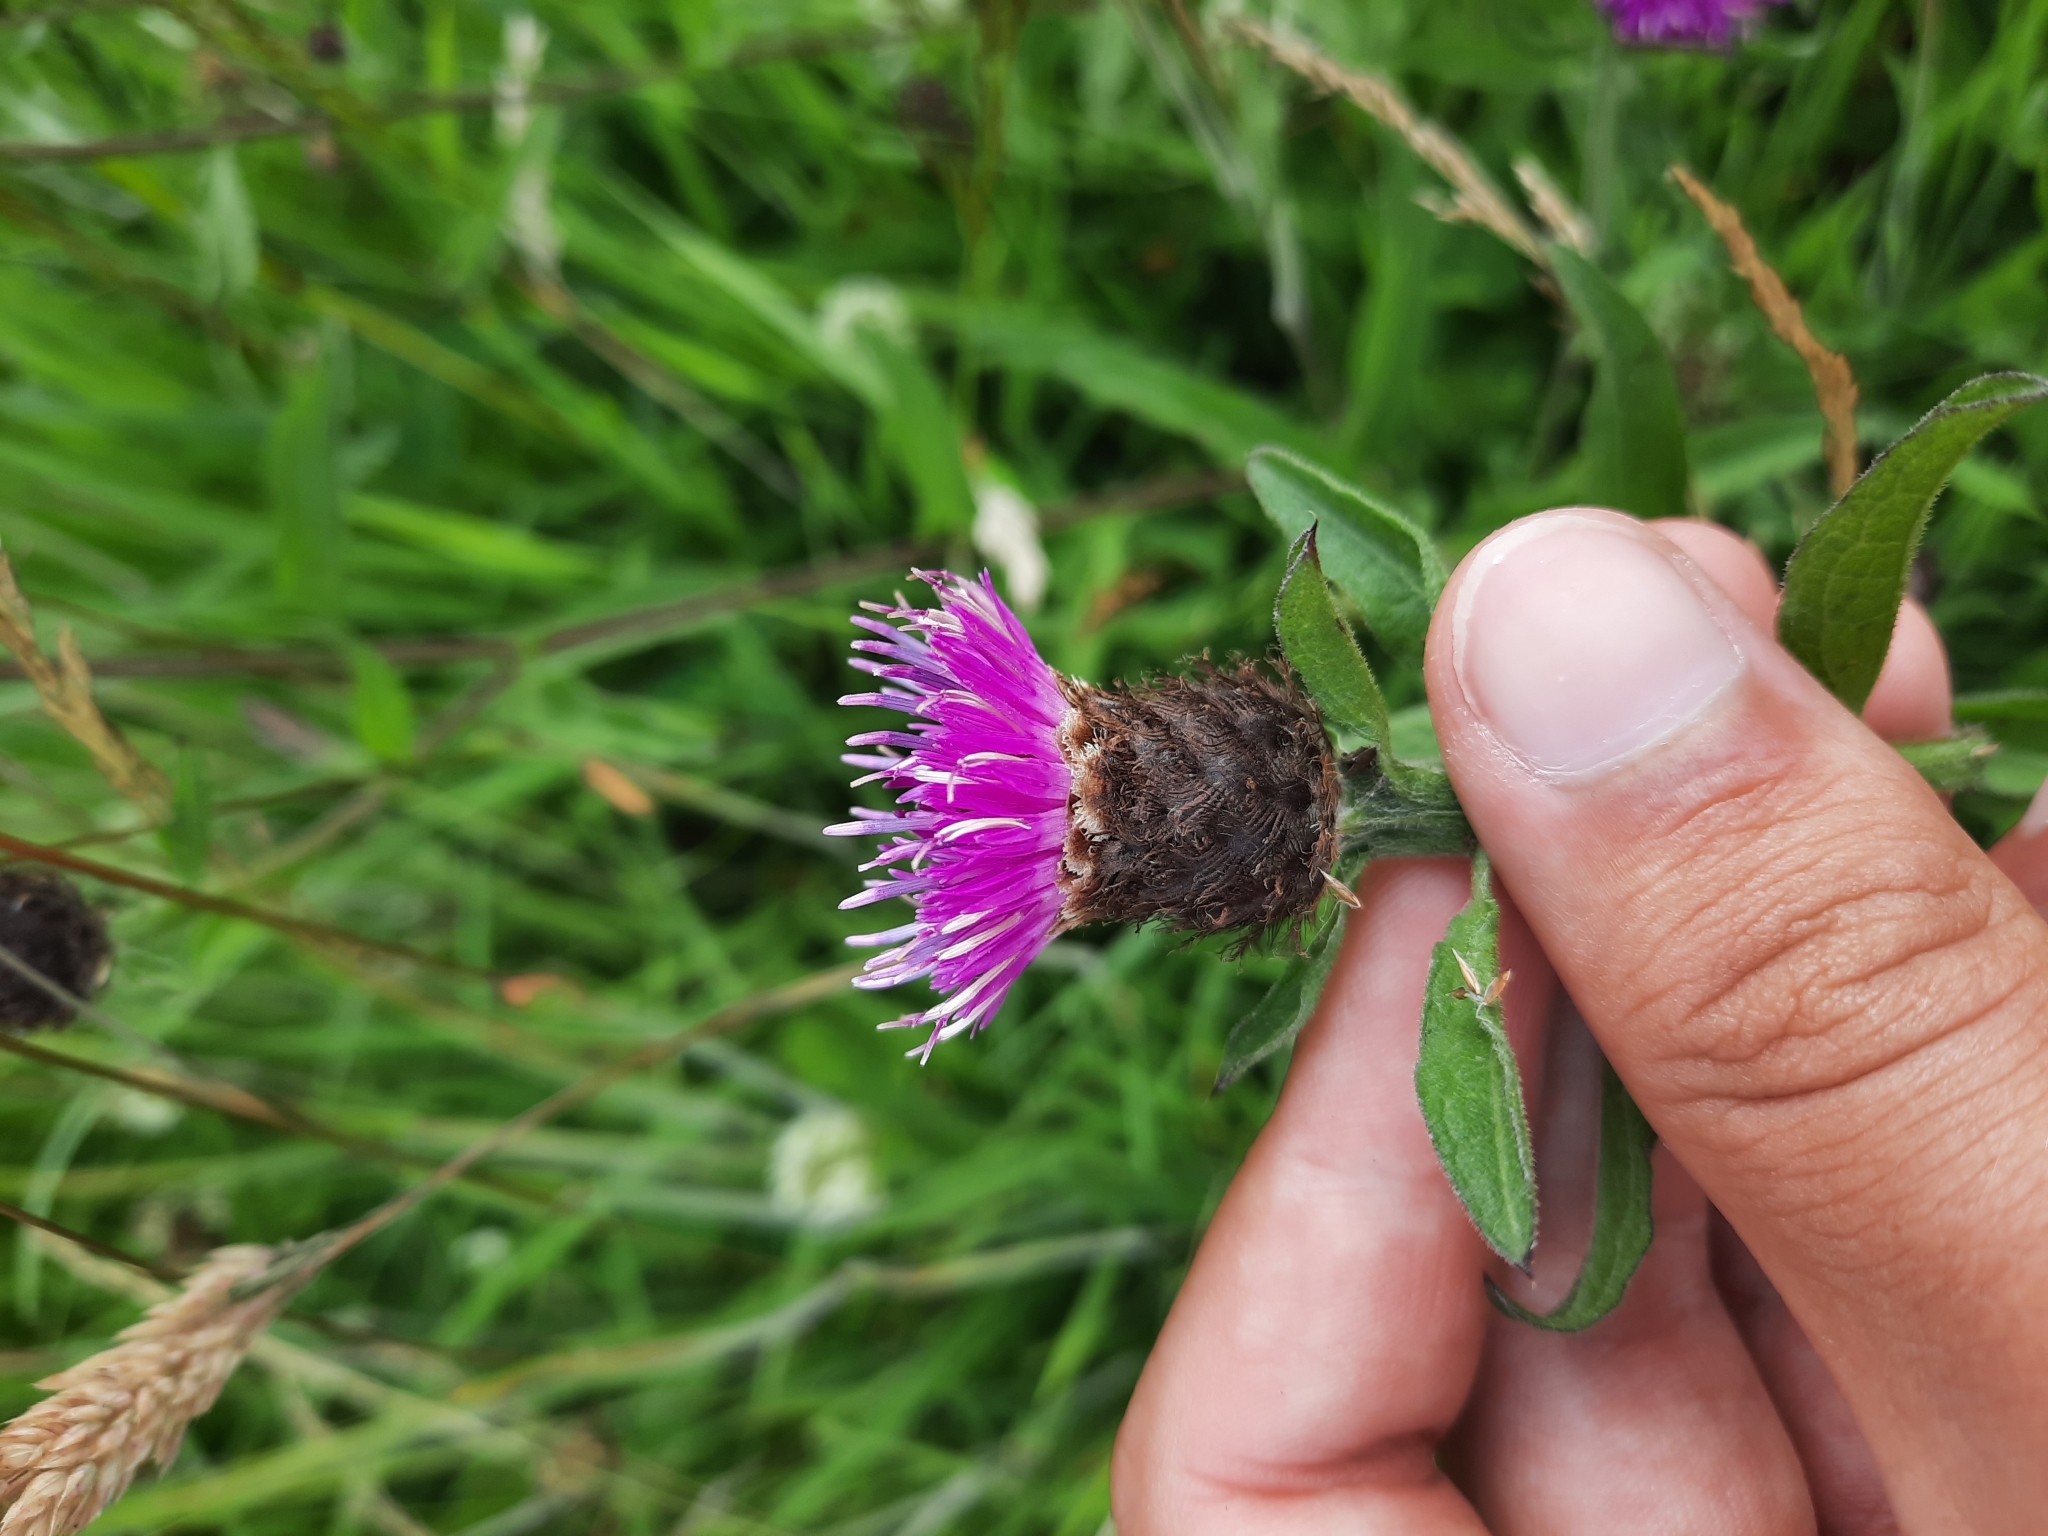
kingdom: Plantae
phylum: Tracheophyta
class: Magnoliopsida
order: Asterales
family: Asteraceae
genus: Centaurea
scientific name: Centaurea nigra
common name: Lesser knapweed
